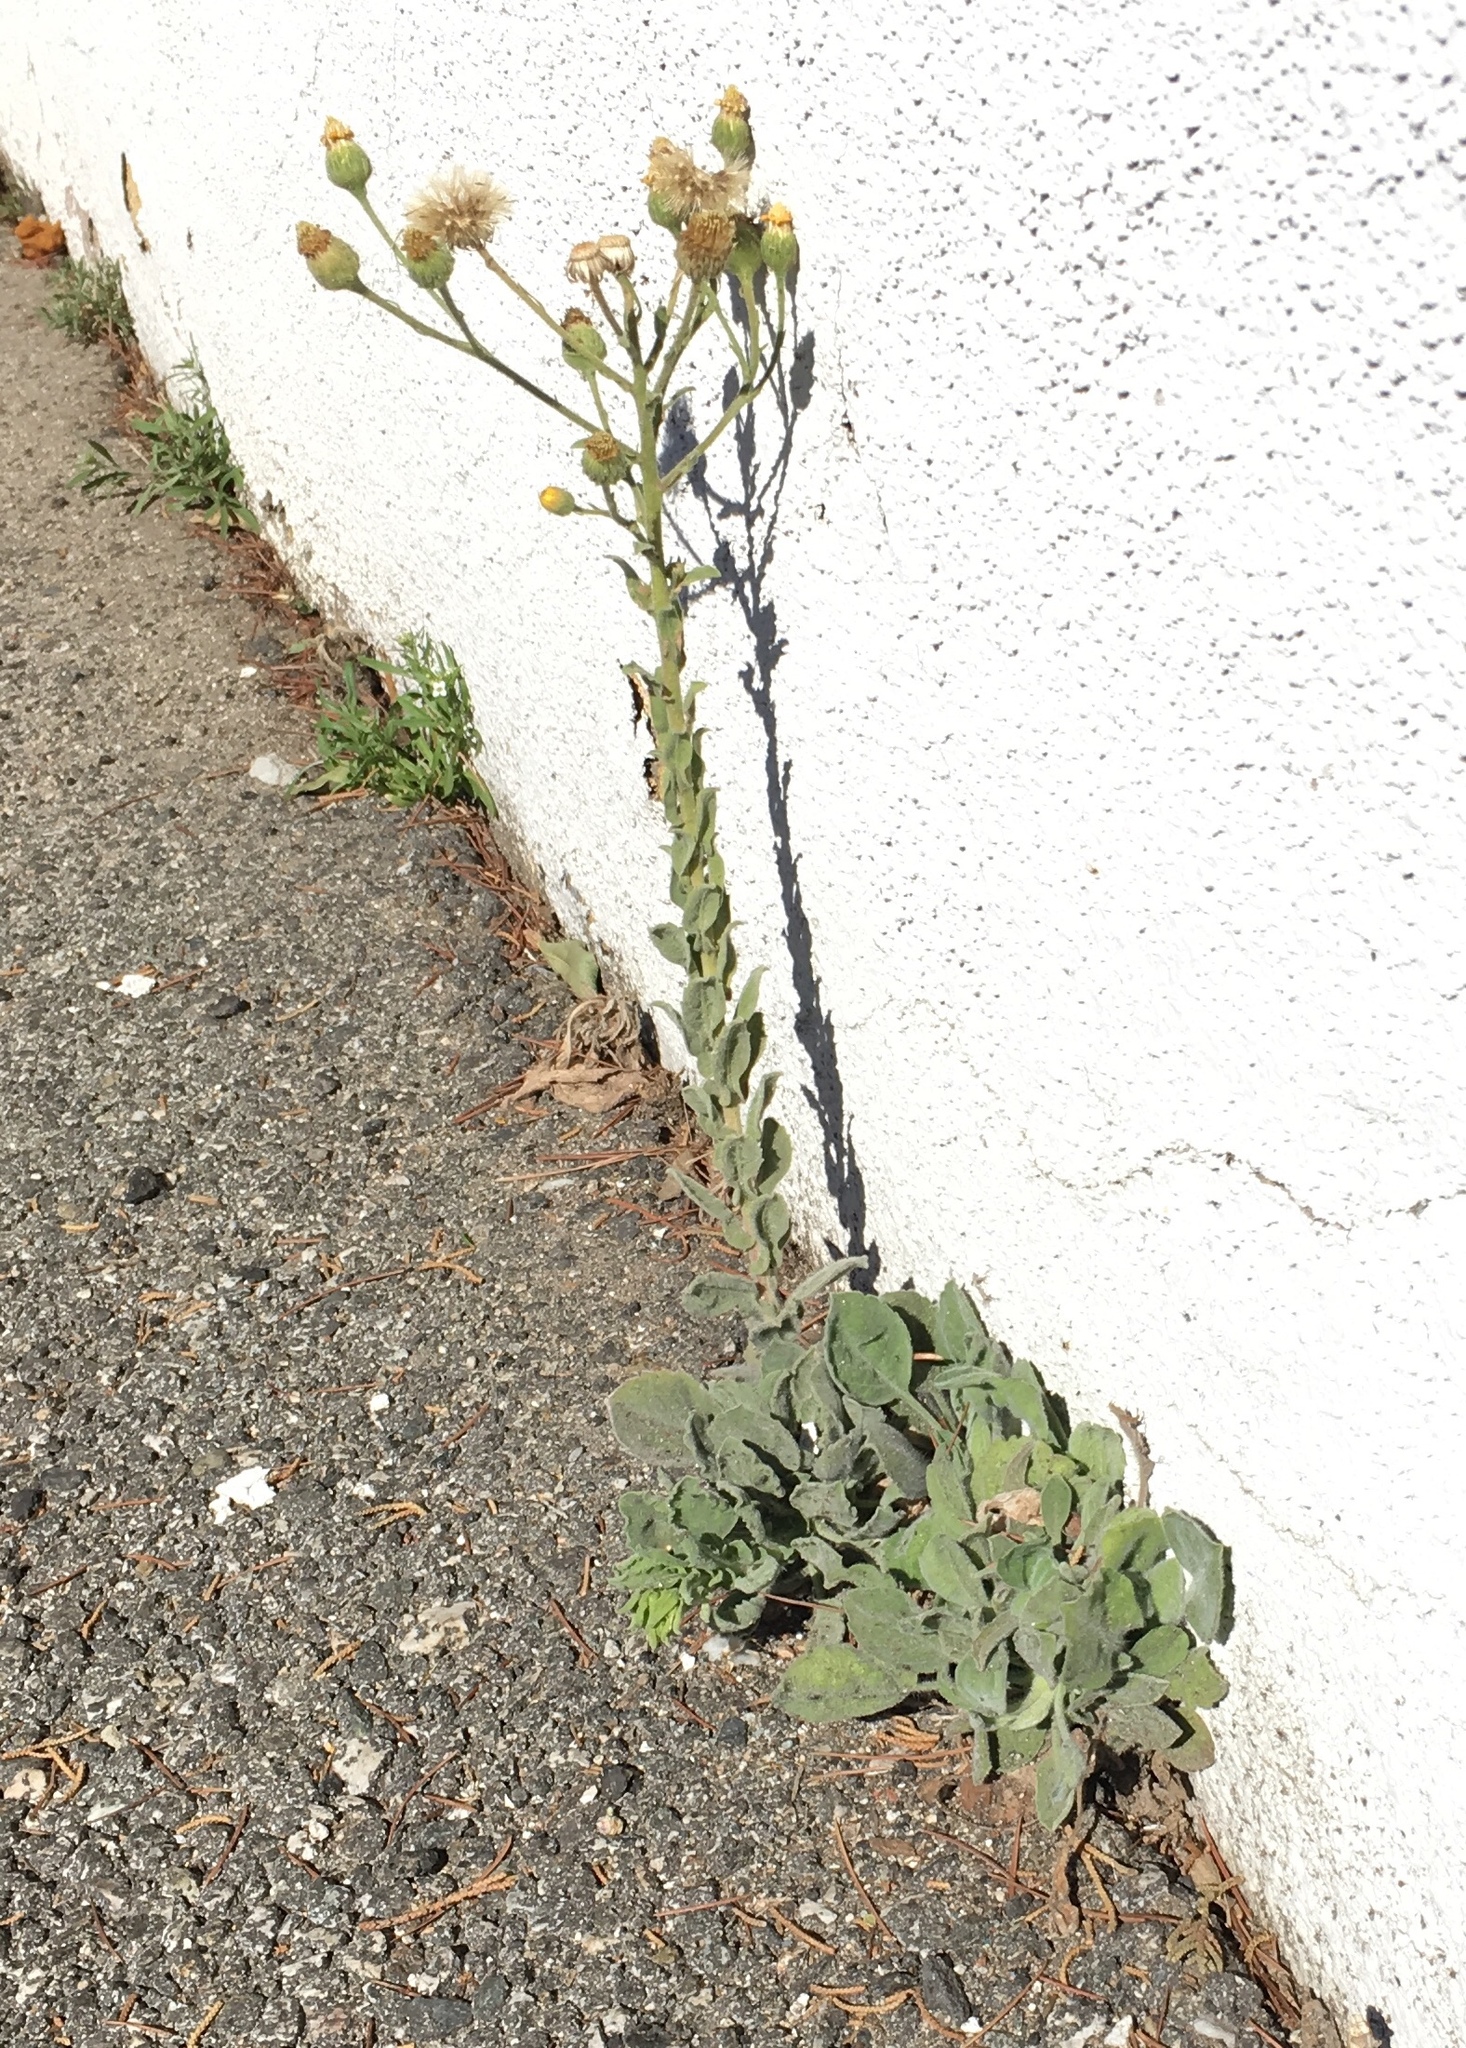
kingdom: Plantae
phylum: Tracheophyta
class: Magnoliopsida
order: Asterales
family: Asteraceae
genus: Heterotheca
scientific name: Heterotheca grandiflora
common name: Telegraphweed
